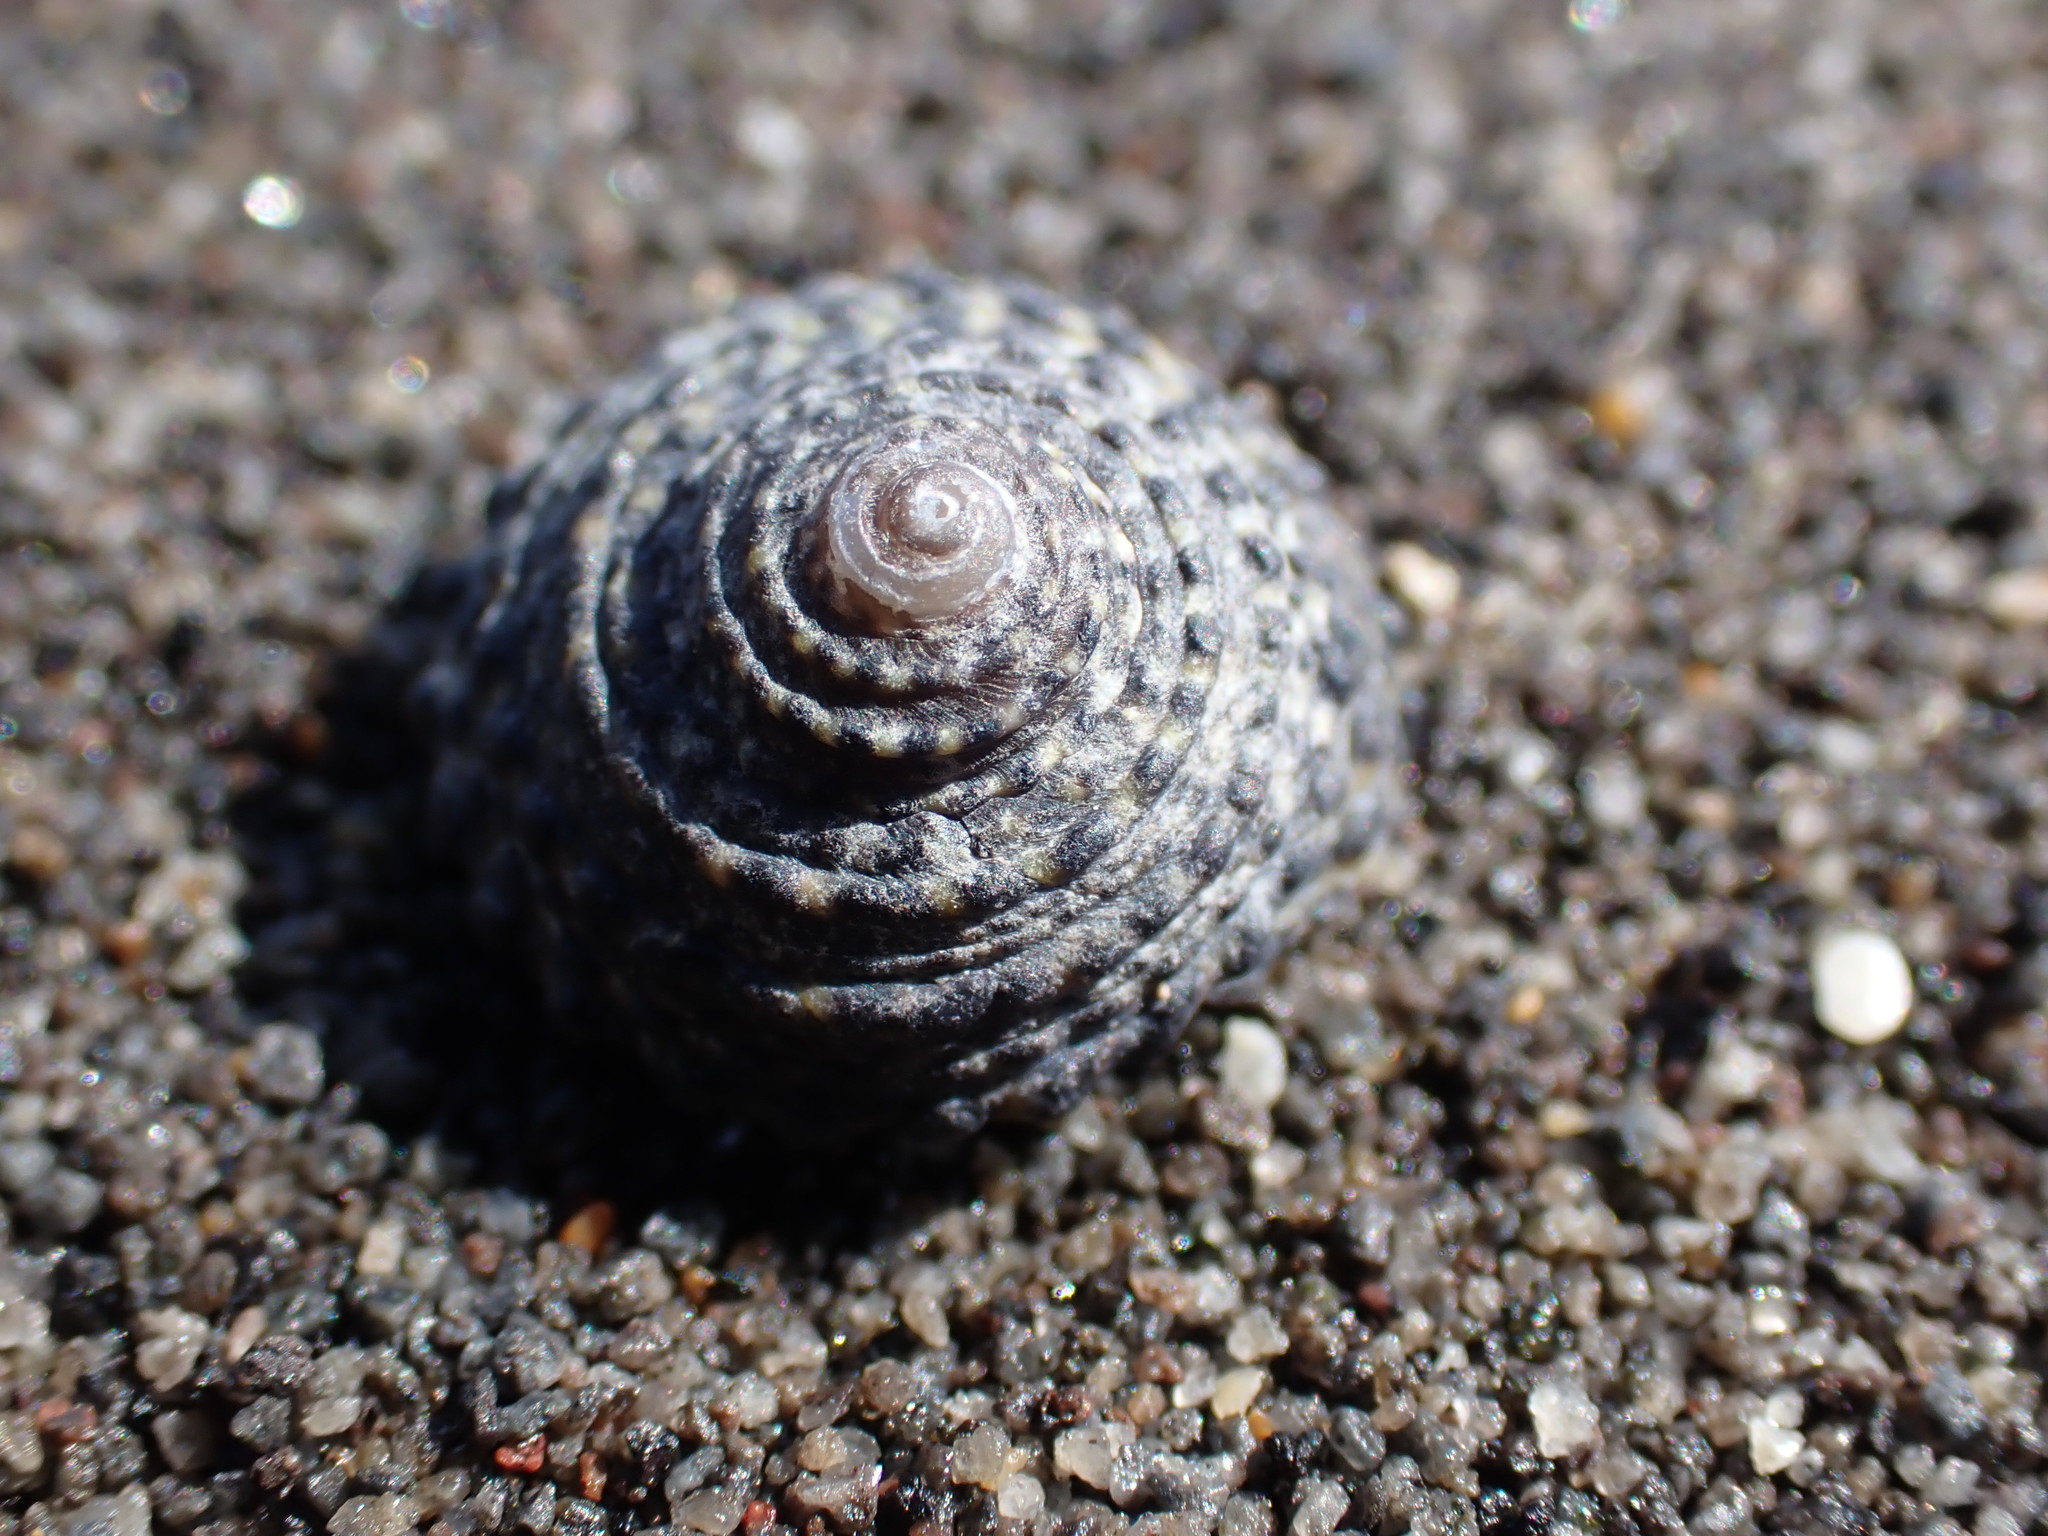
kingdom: Animalia
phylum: Mollusca
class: Gastropoda
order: Trochida
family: Trochidae
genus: Diloma
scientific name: Diloma bicanaliculatum
